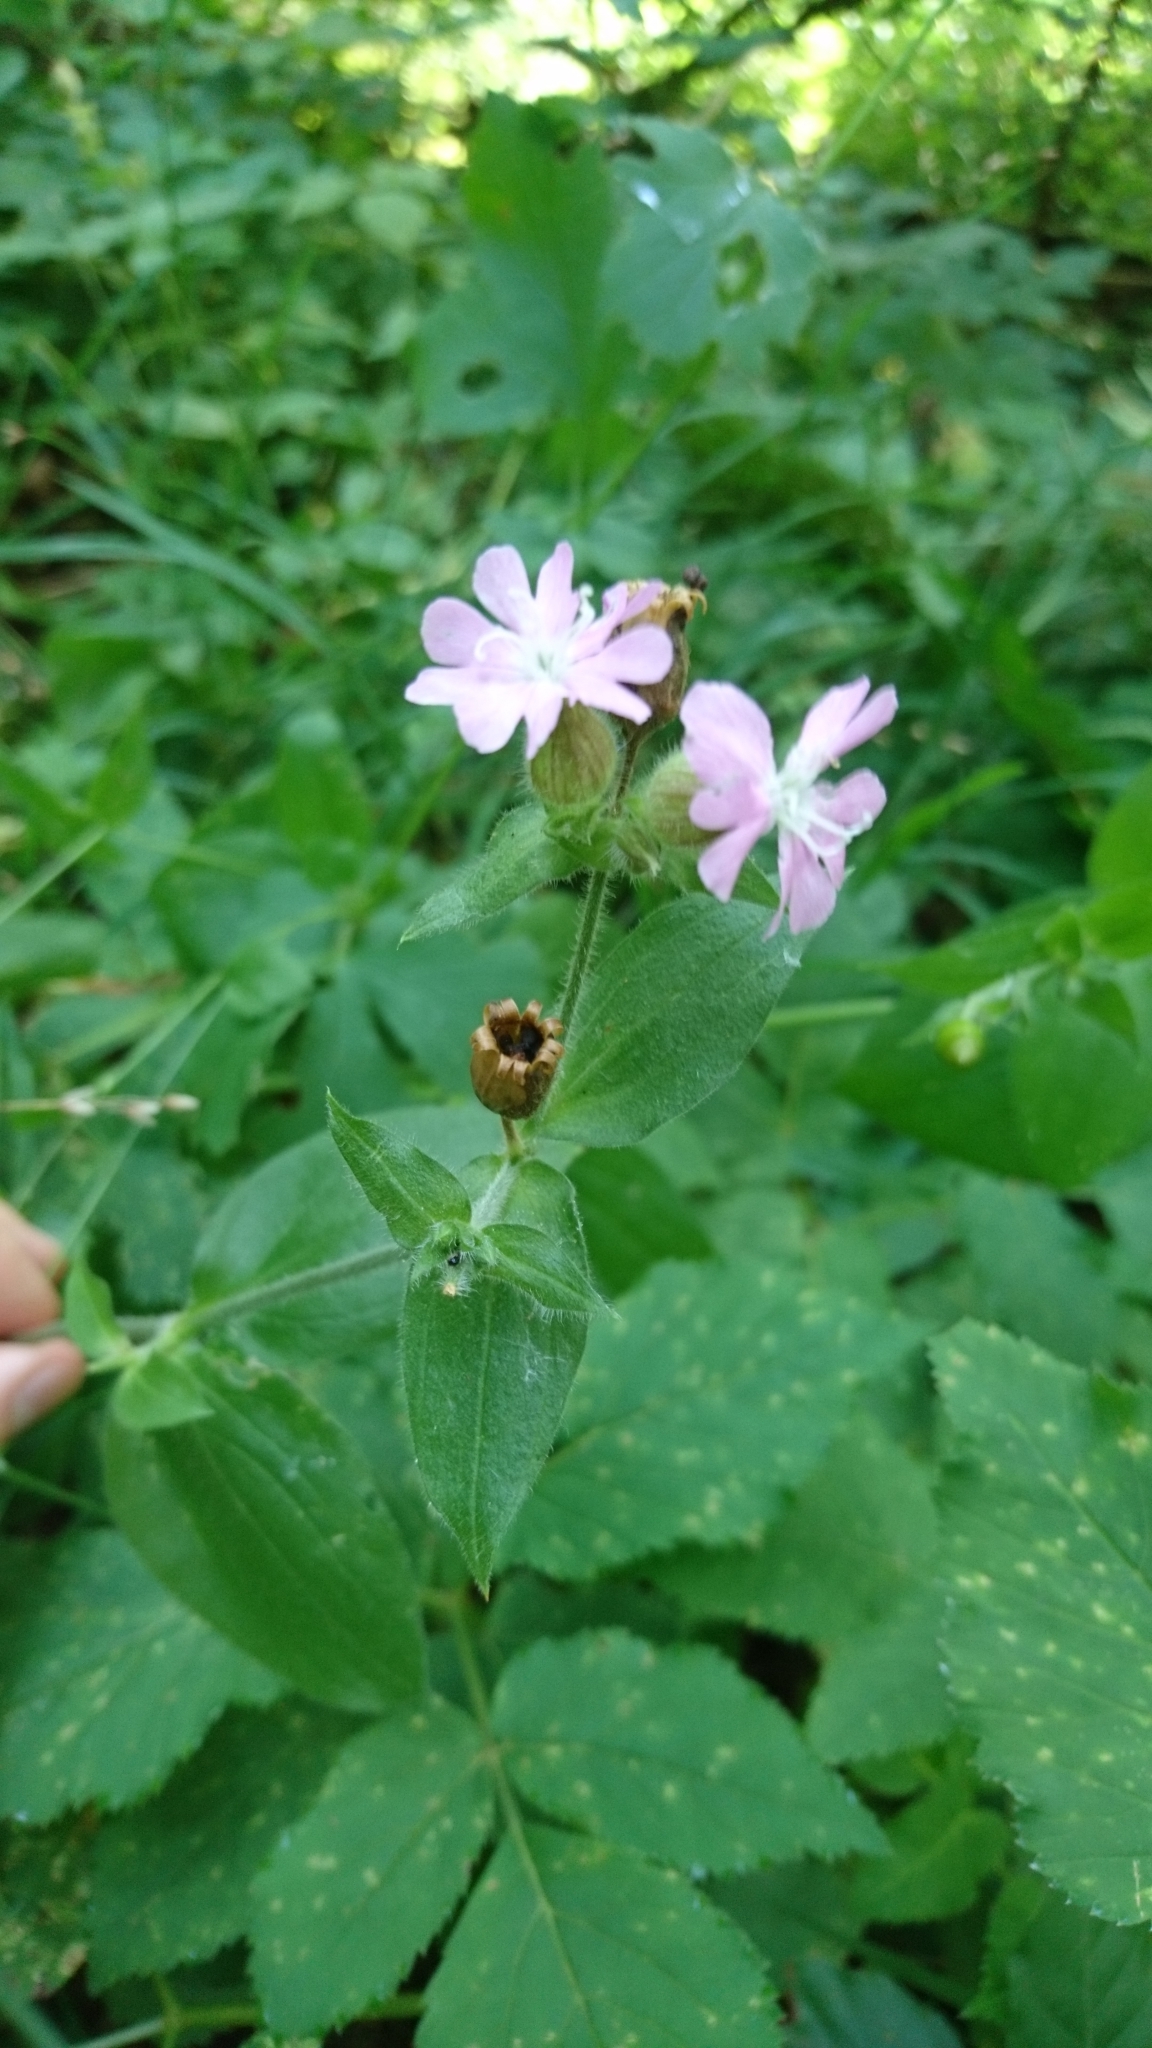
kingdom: Plantae
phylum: Tracheophyta
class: Magnoliopsida
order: Caryophyllales
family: Caryophyllaceae
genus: Silene
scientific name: Silene dioica
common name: Red campion
